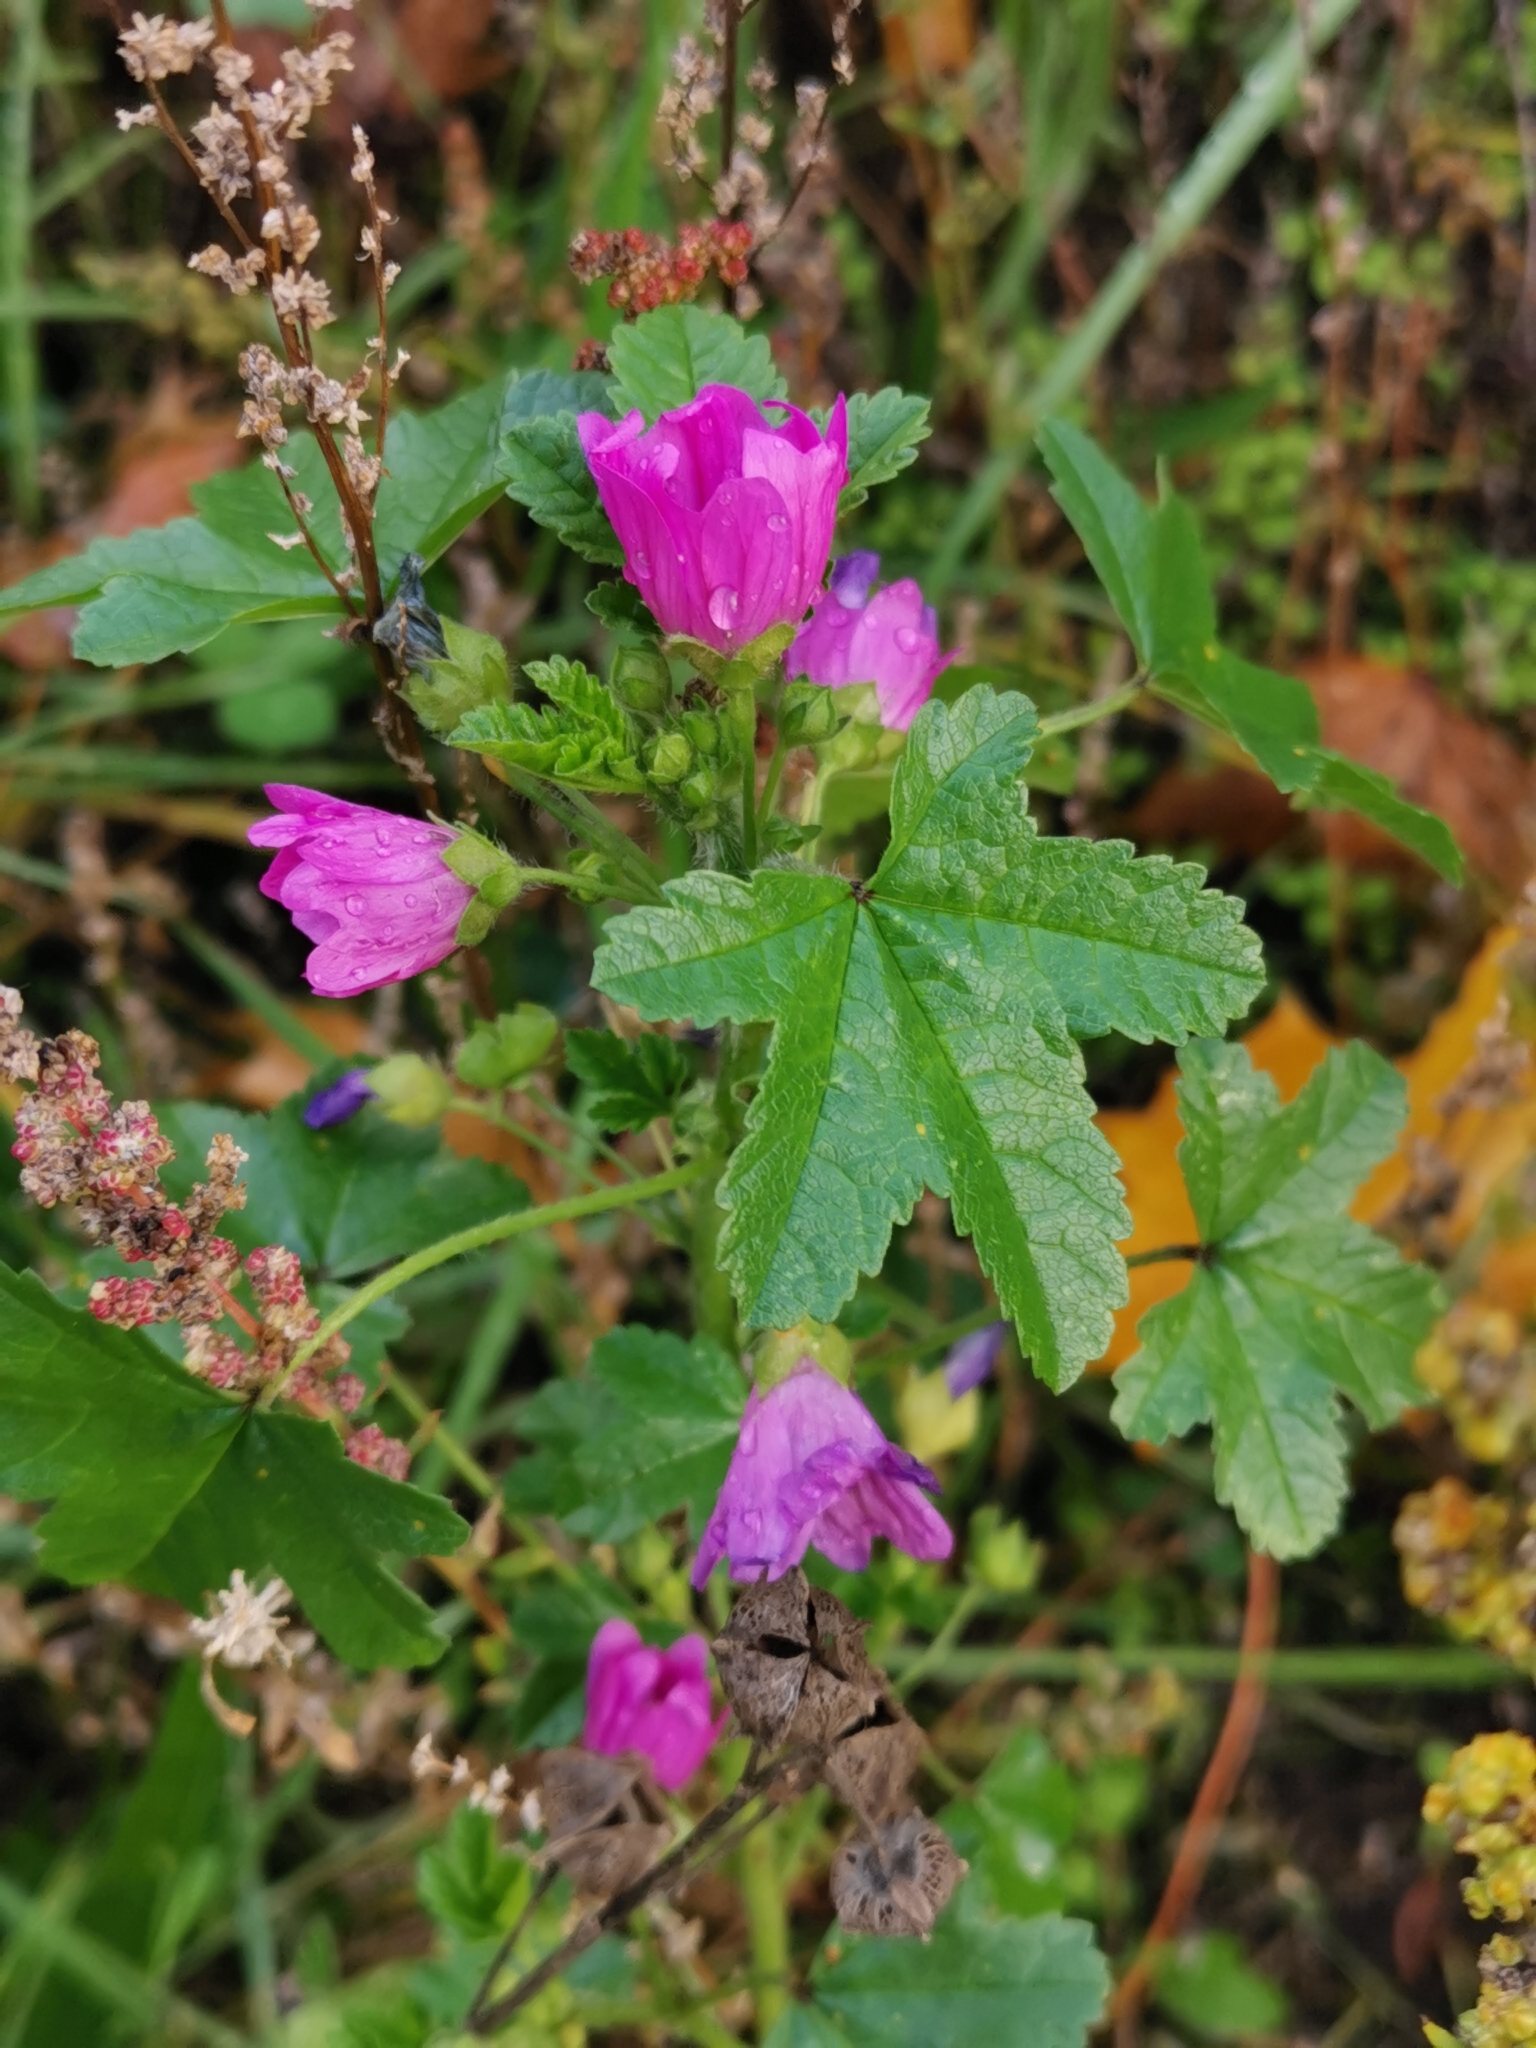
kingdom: Plantae
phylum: Tracheophyta
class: Magnoliopsida
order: Malvales
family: Malvaceae
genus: Malva
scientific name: Malva sylvestris
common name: Common mallow
